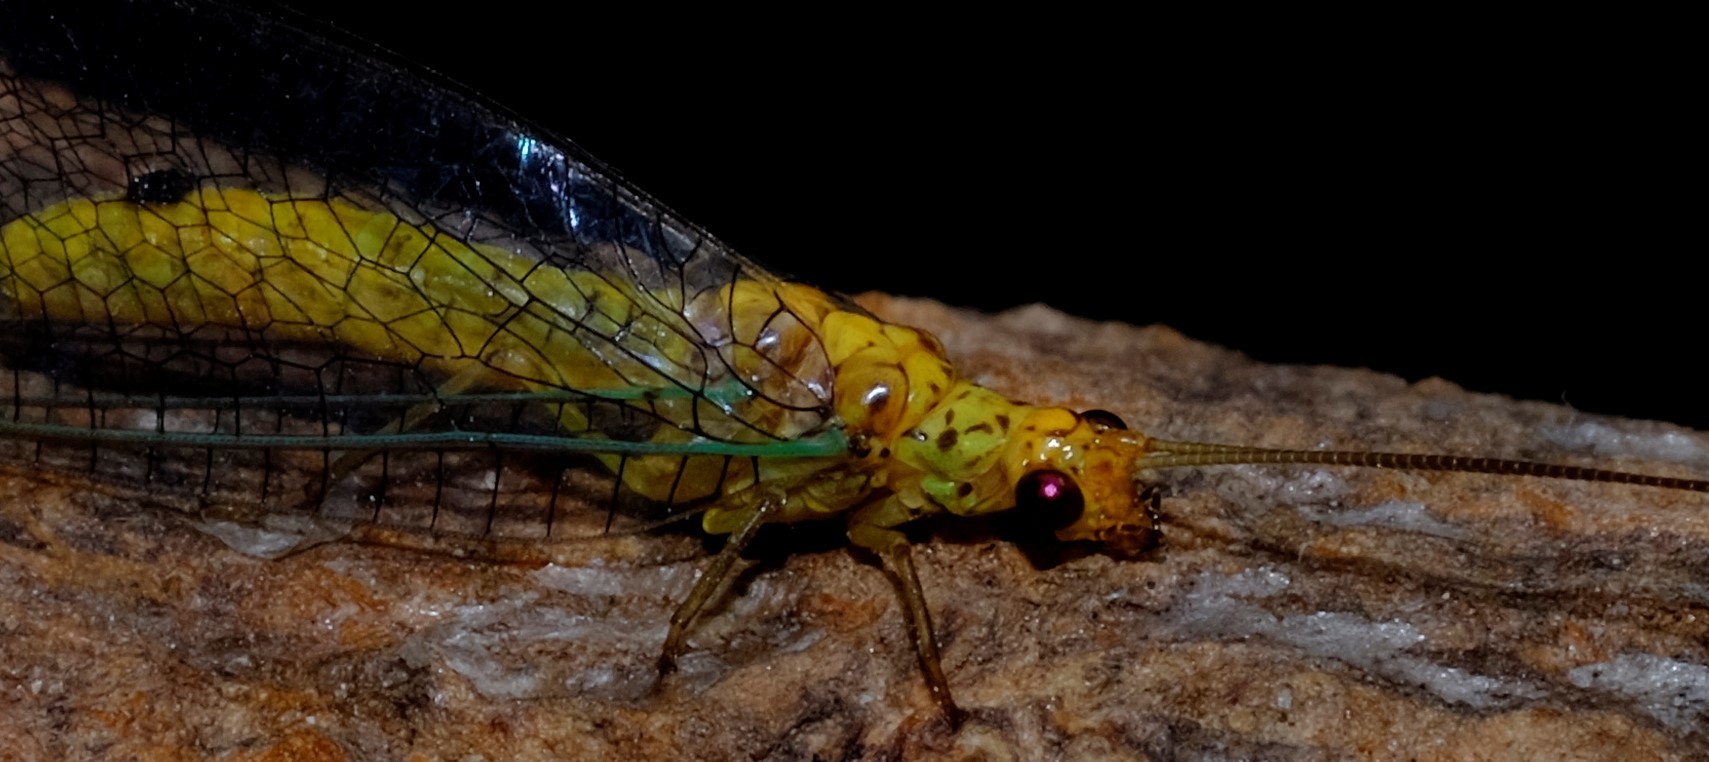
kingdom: Animalia
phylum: Arthropoda
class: Insecta
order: Neuroptera
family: Chrysopidae
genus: Dictyochrysa
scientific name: Dictyochrysa peterseni
